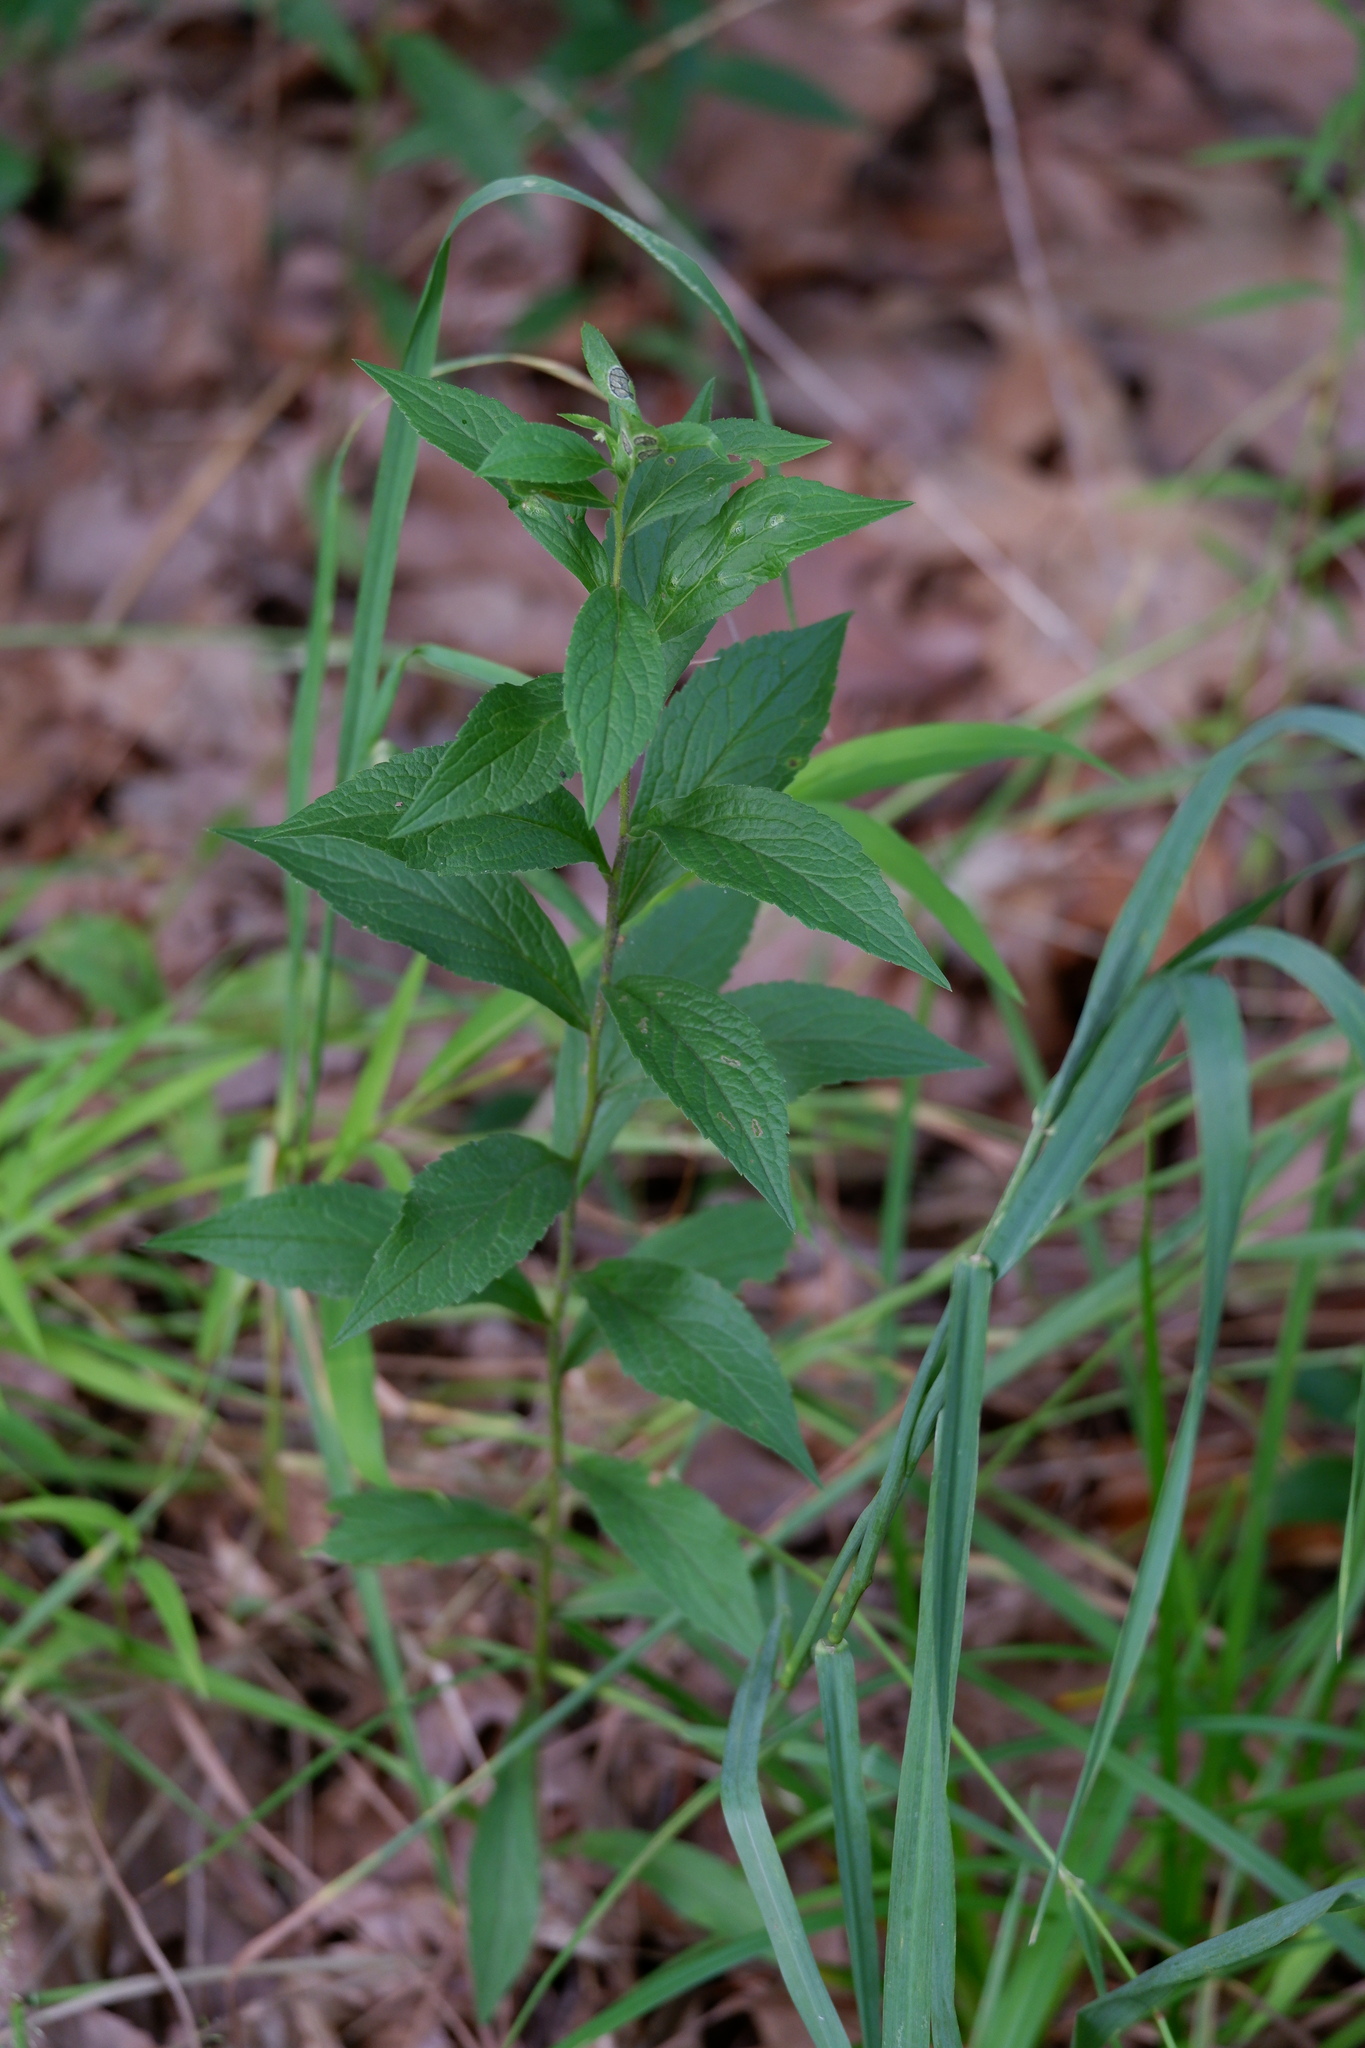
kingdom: Plantae
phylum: Tracheophyta
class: Magnoliopsida
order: Asterales
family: Asteraceae
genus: Solidago
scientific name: Solidago rugosa
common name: Rough-stemmed goldenrod
